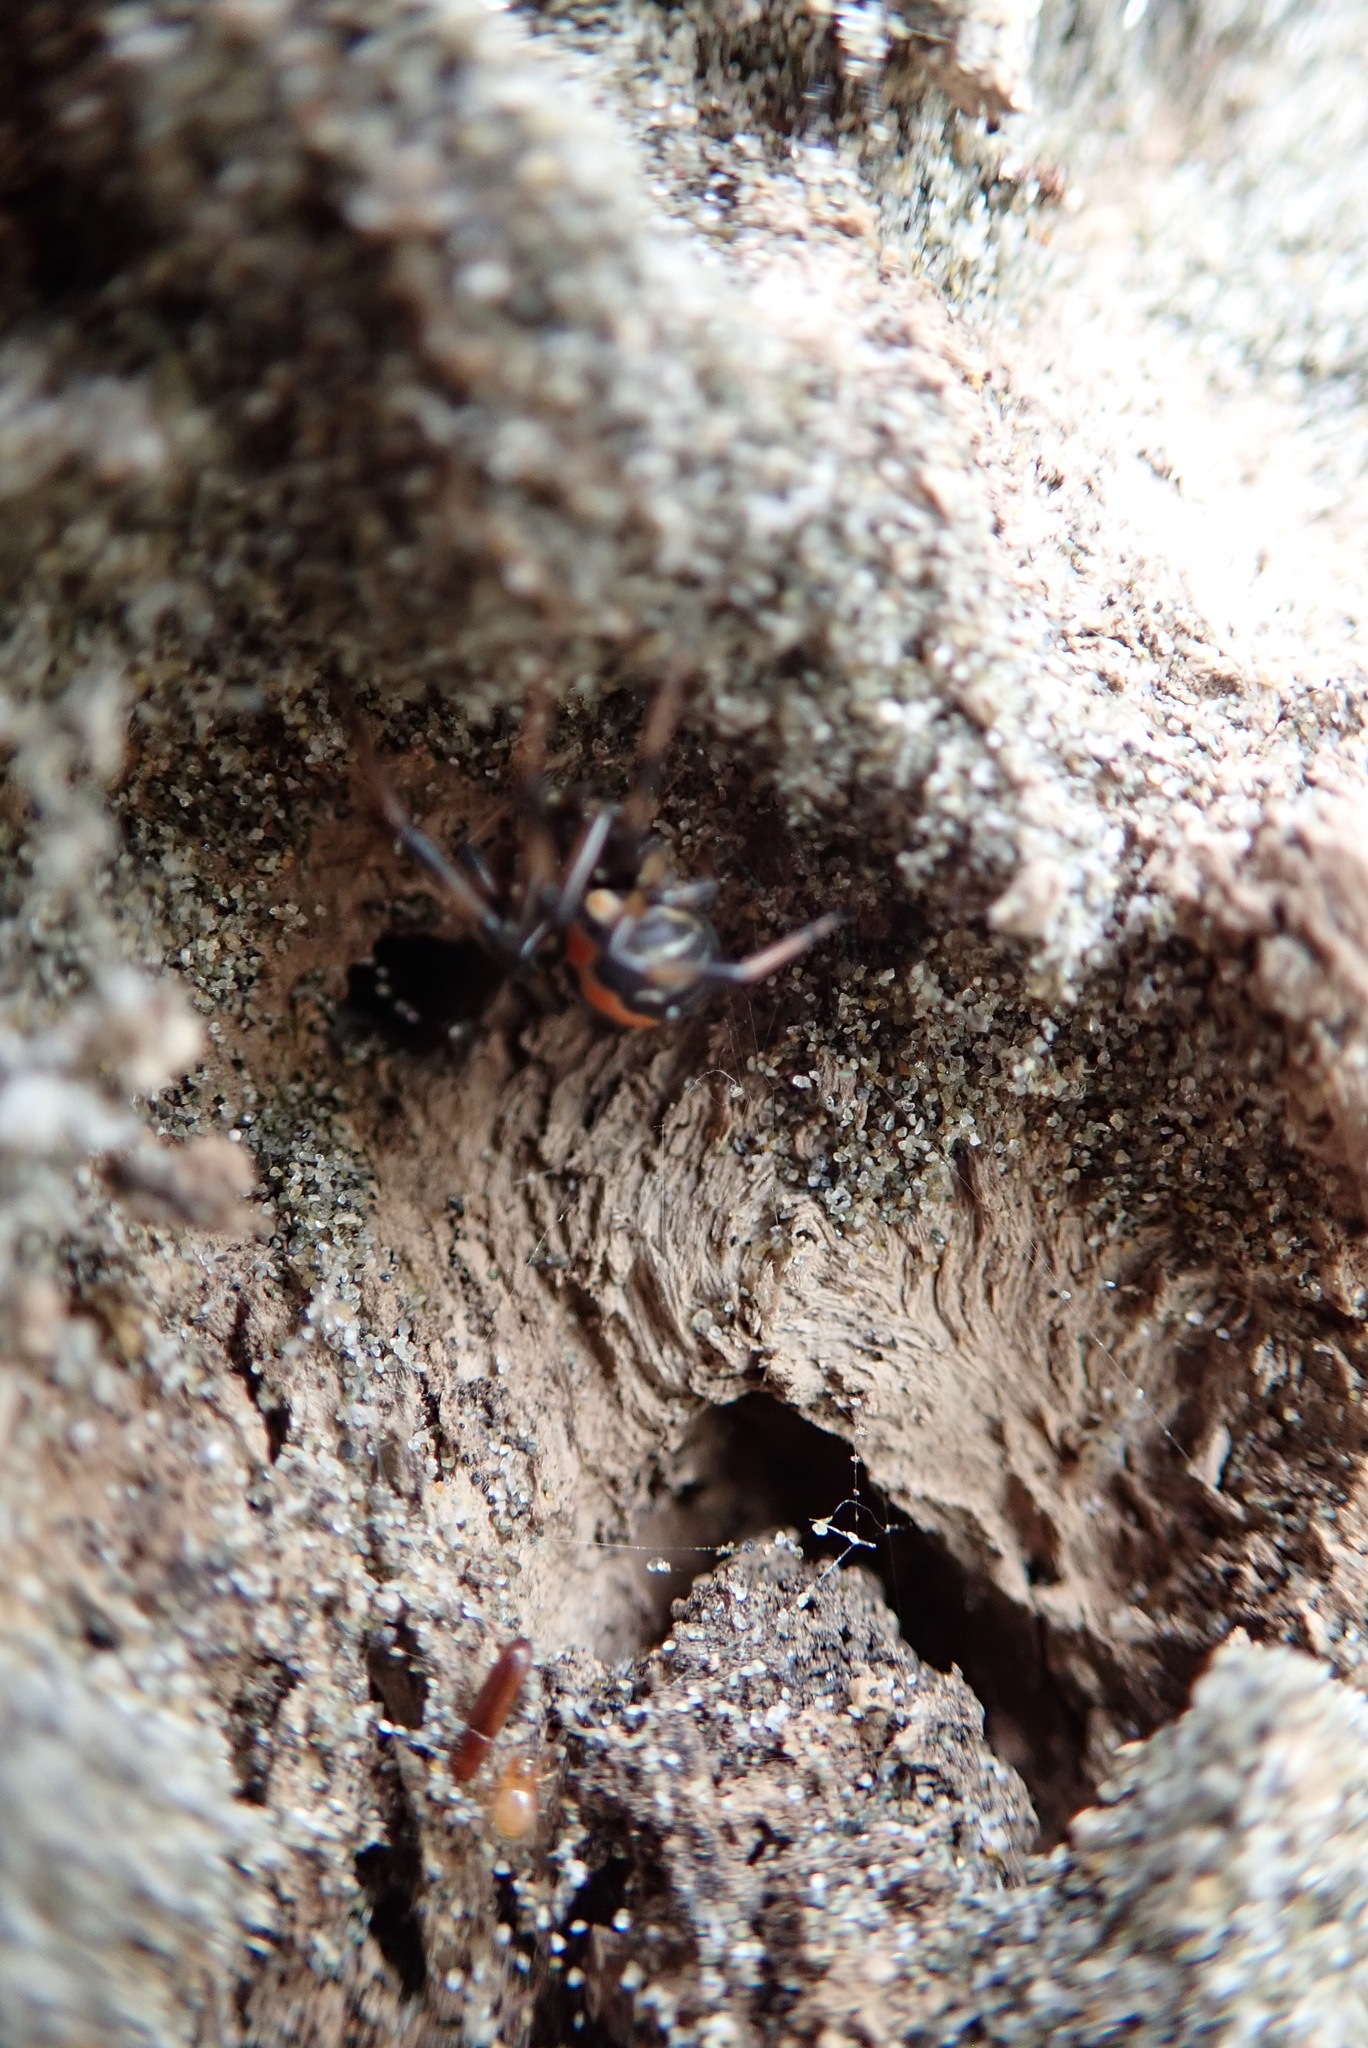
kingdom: Animalia
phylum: Arthropoda
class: Arachnida
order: Araneae
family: Theridiidae
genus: Latrodectus
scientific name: Latrodectus katipo
